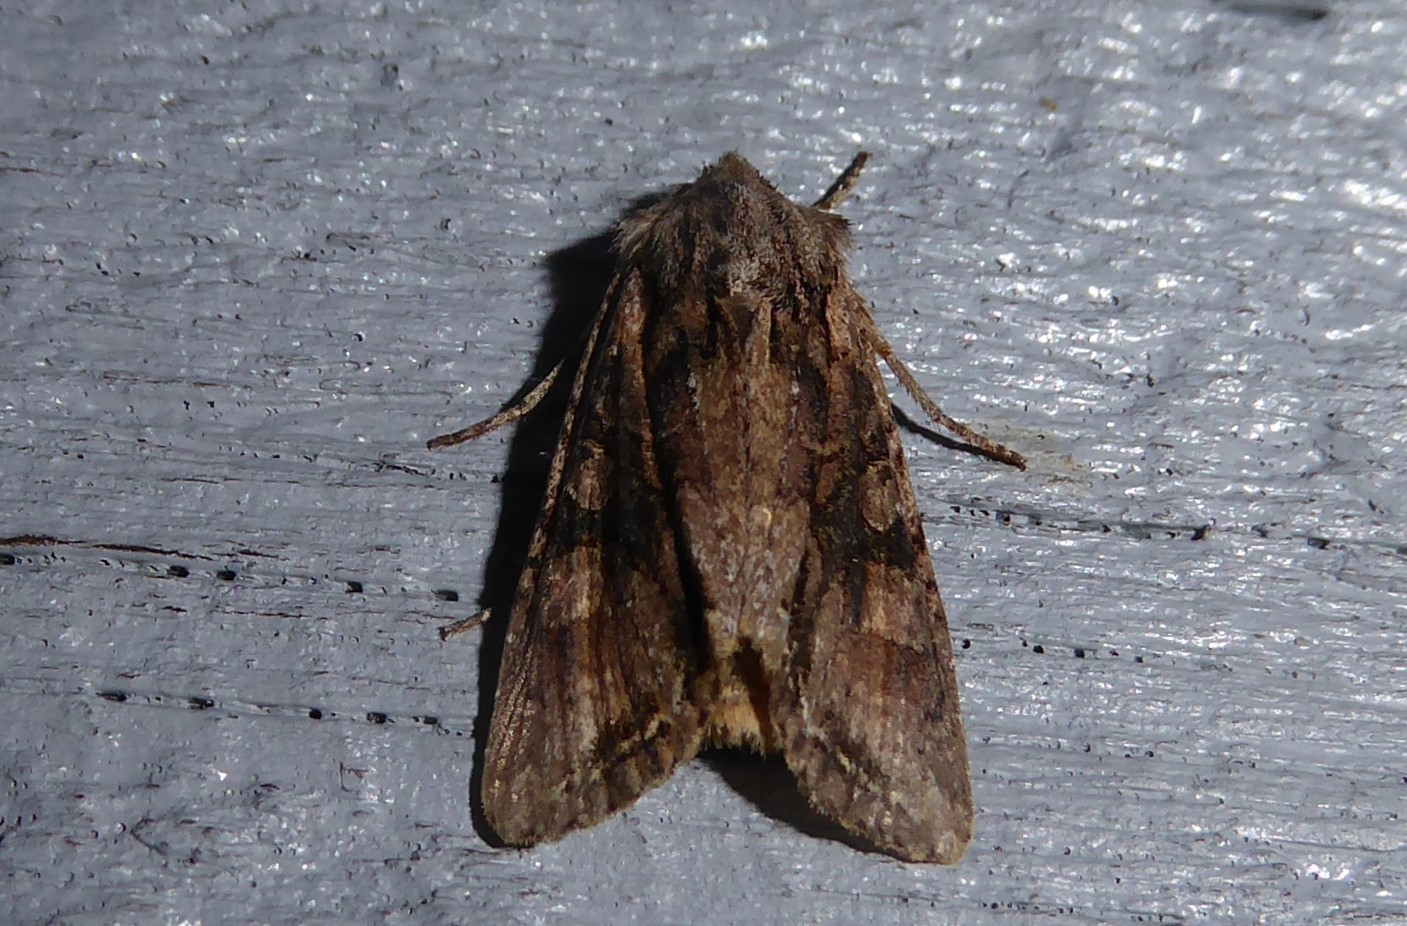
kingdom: Animalia
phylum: Arthropoda
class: Insecta
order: Lepidoptera
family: Noctuidae
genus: Ichneutica
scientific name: Ichneutica mutans
